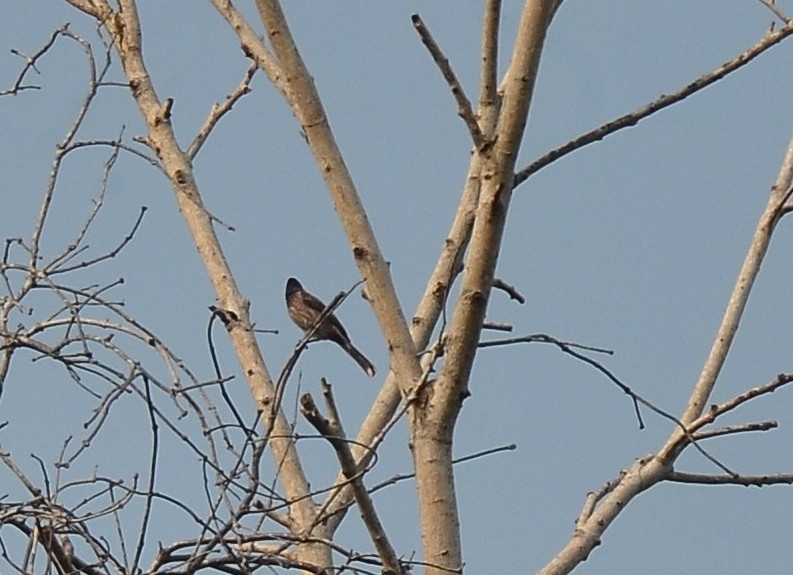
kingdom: Animalia
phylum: Chordata
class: Aves
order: Passeriformes
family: Pycnonotidae
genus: Pycnonotus
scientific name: Pycnonotus cafer
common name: Red-vented bulbul
